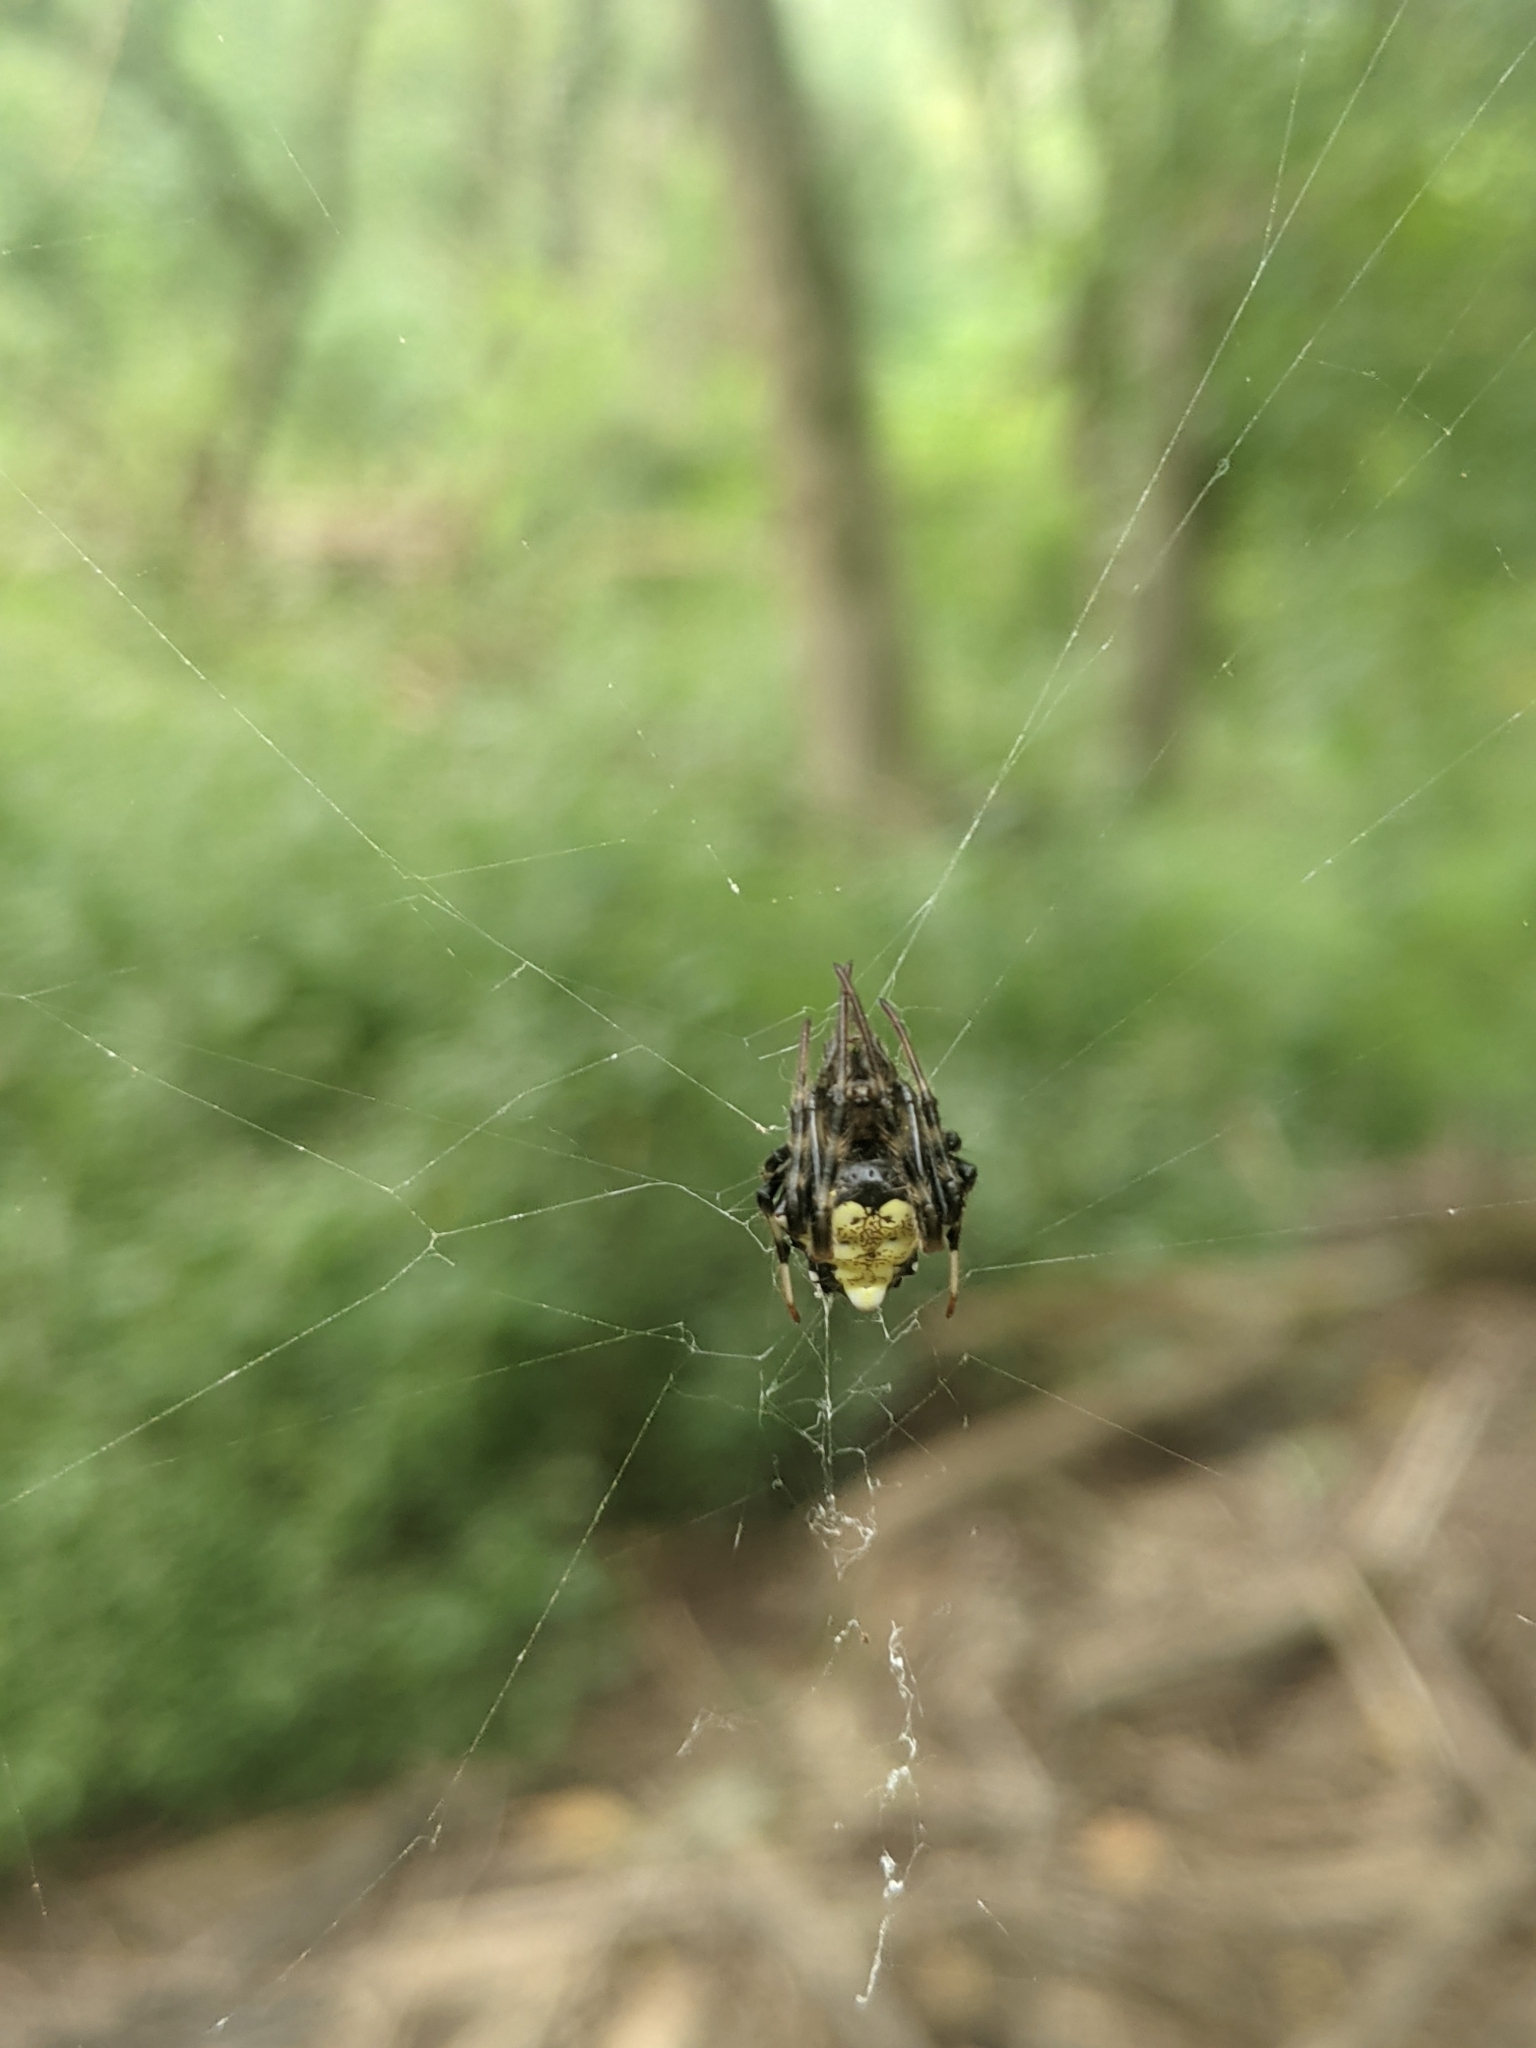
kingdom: Animalia
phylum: Arthropoda
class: Arachnida
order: Araneae
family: Araneidae
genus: Verrucosa
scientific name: Verrucosa arenata
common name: Orb weavers
